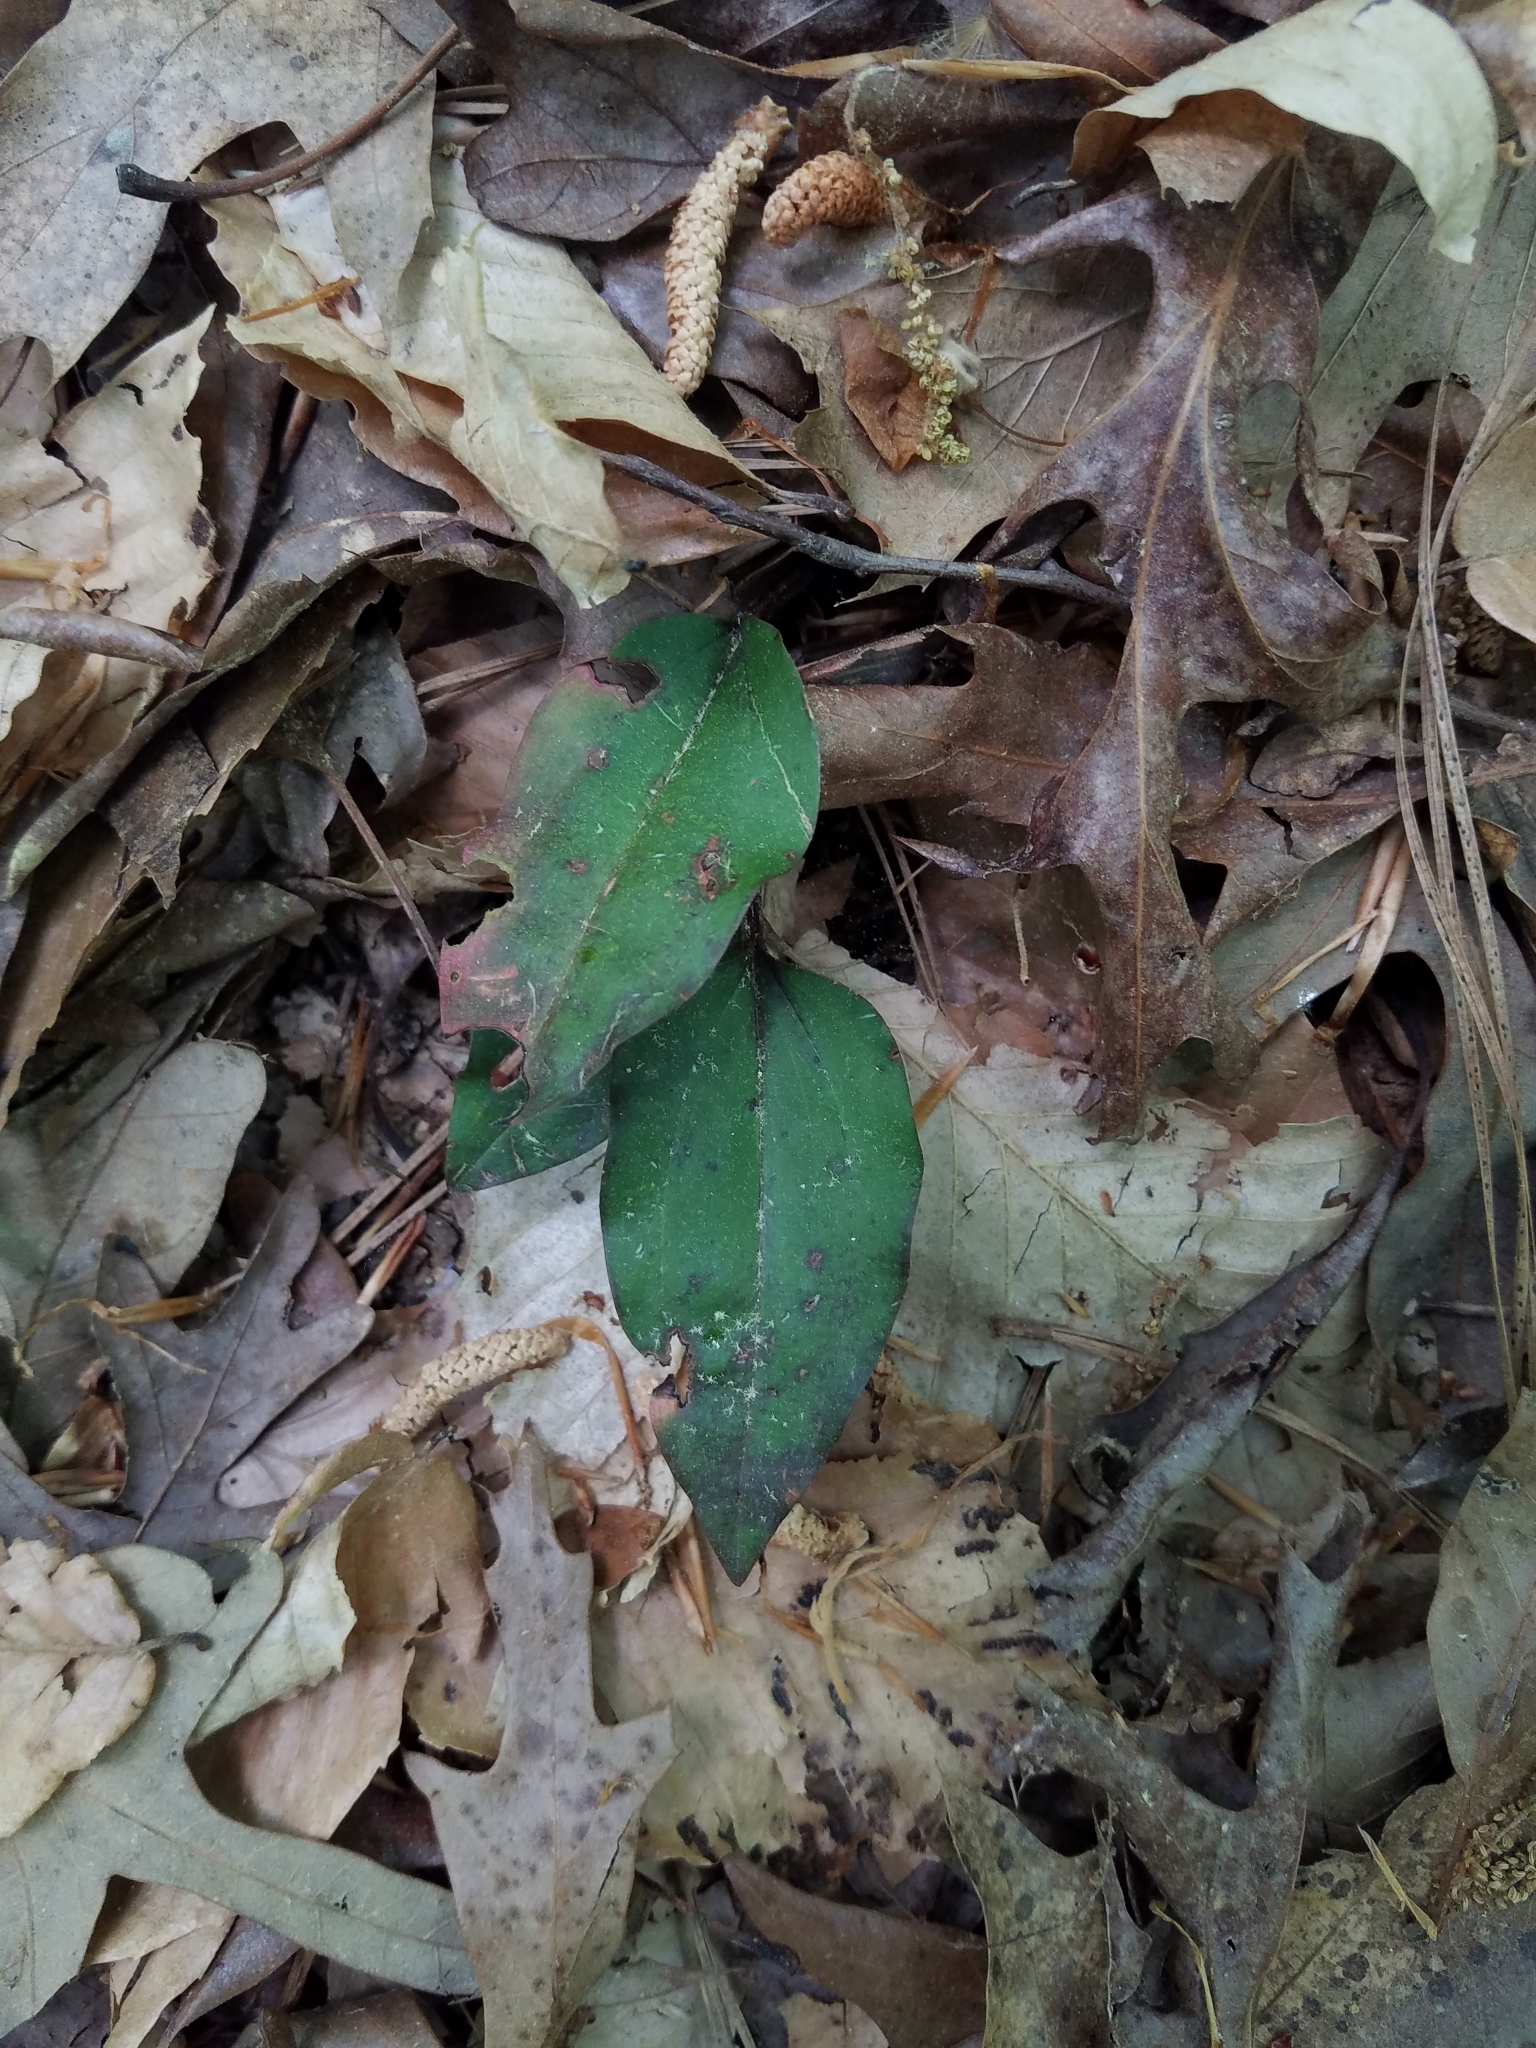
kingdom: Plantae
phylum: Tracheophyta
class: Liliopsida
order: Asparagales
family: Orchidaceae
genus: Tipularia
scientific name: Tipularia discolor
